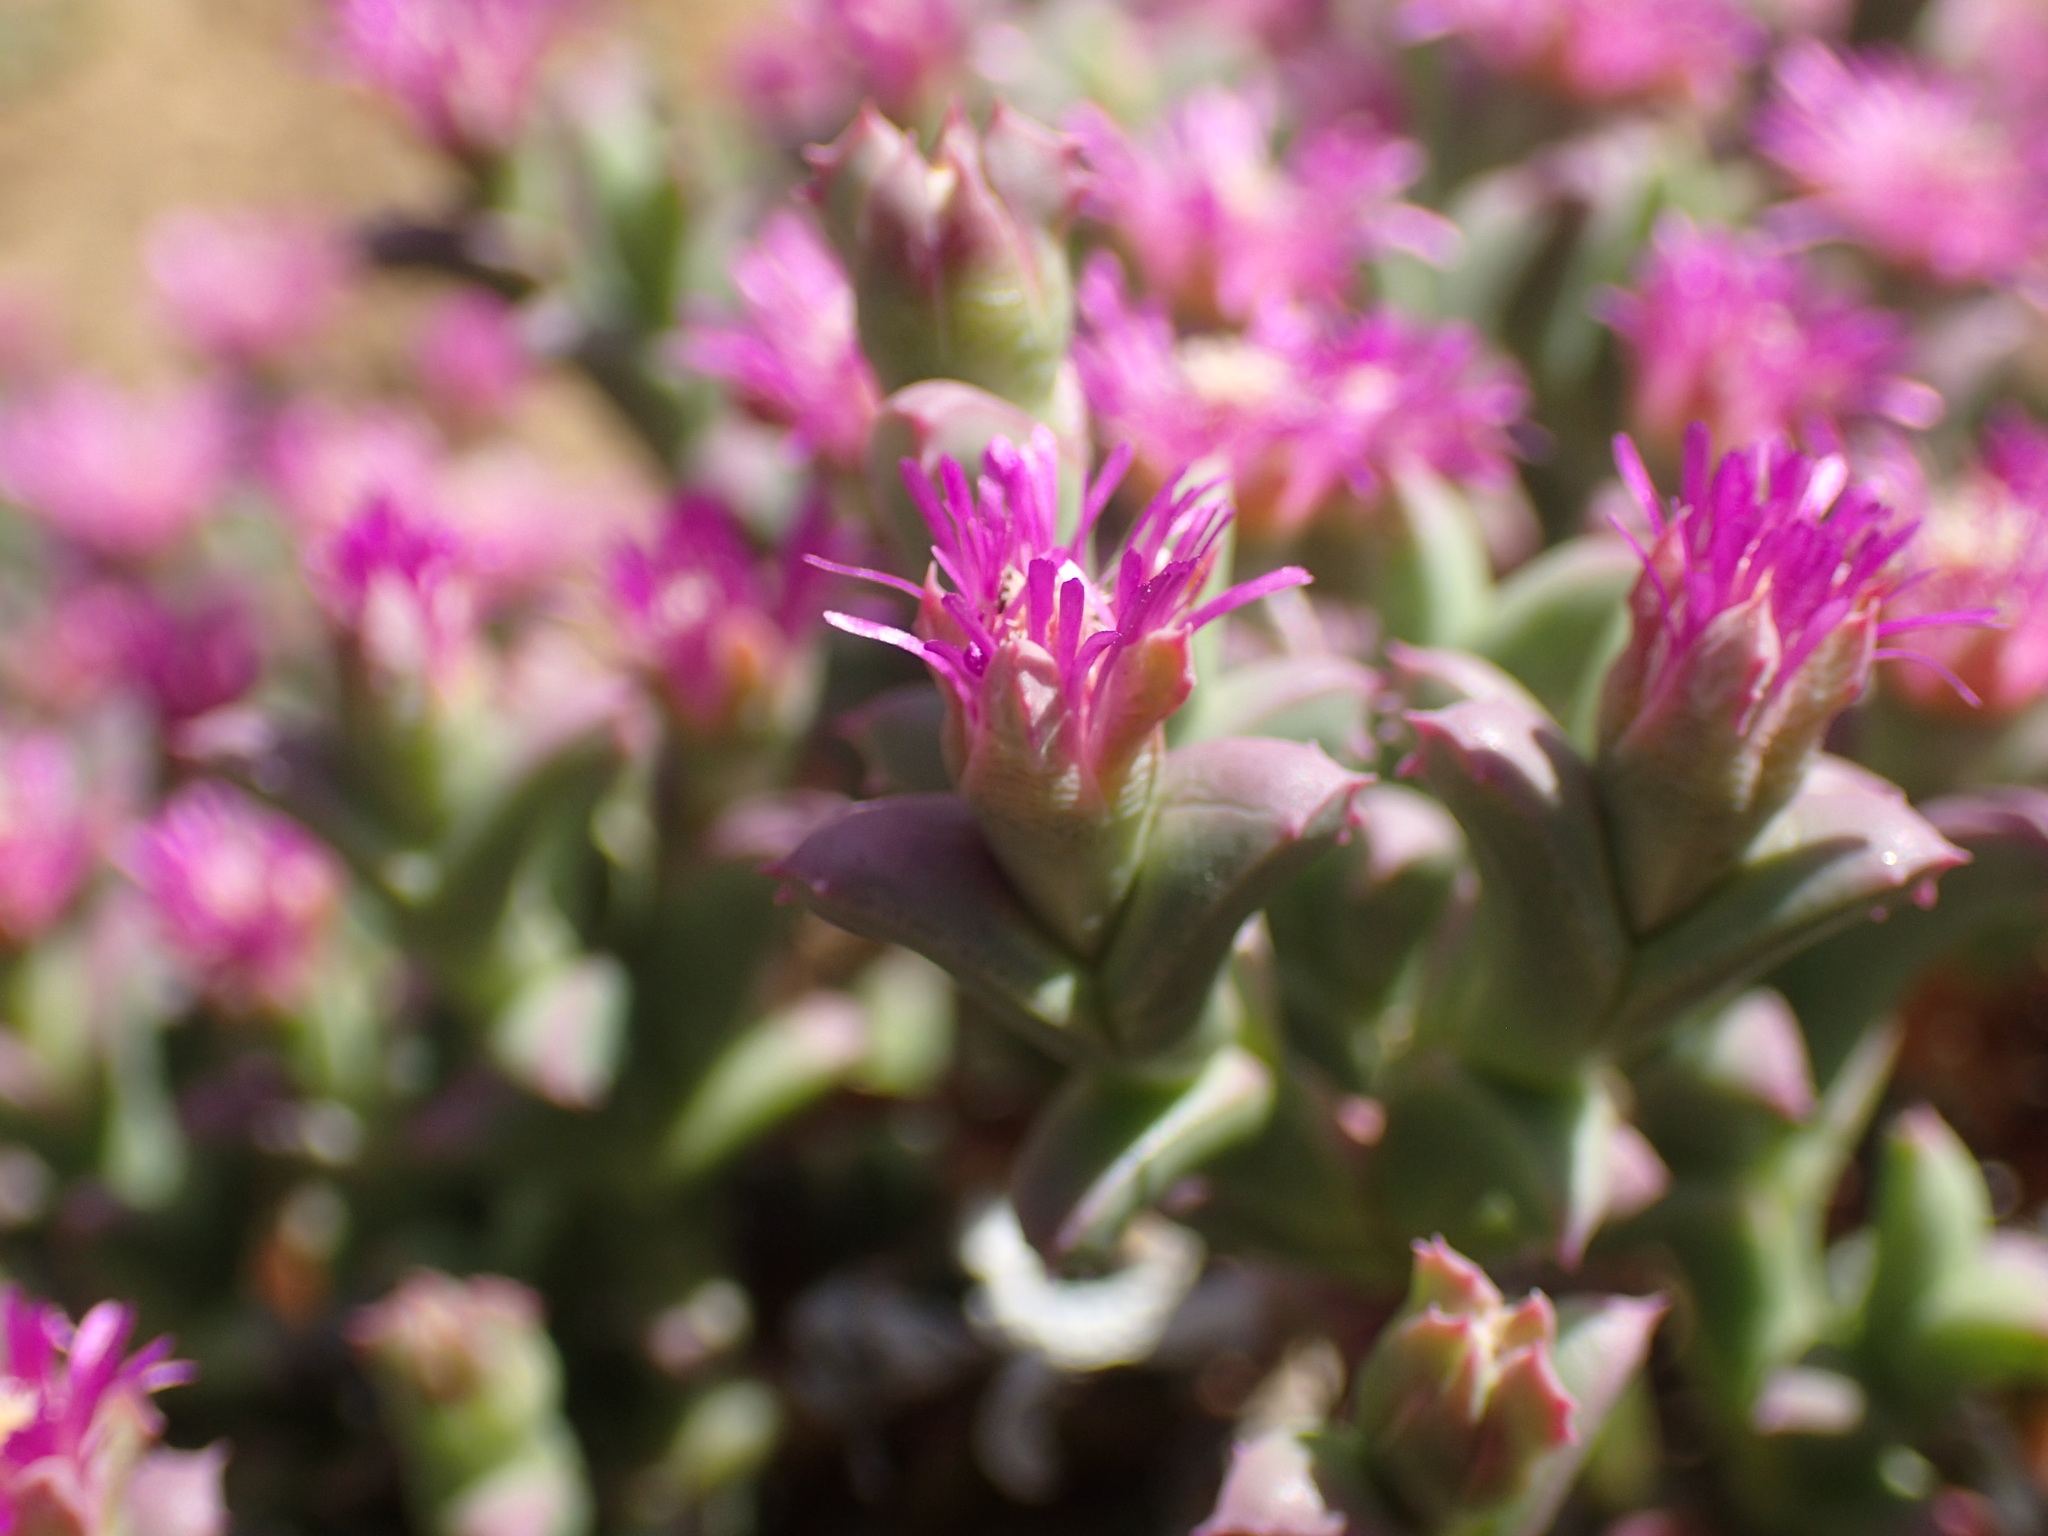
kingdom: Plantae
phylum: Tracheophyta
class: Magnoliopsida
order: Caryophyllales
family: Aizoaceae
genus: Ruschia
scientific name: Ruschia approximata
